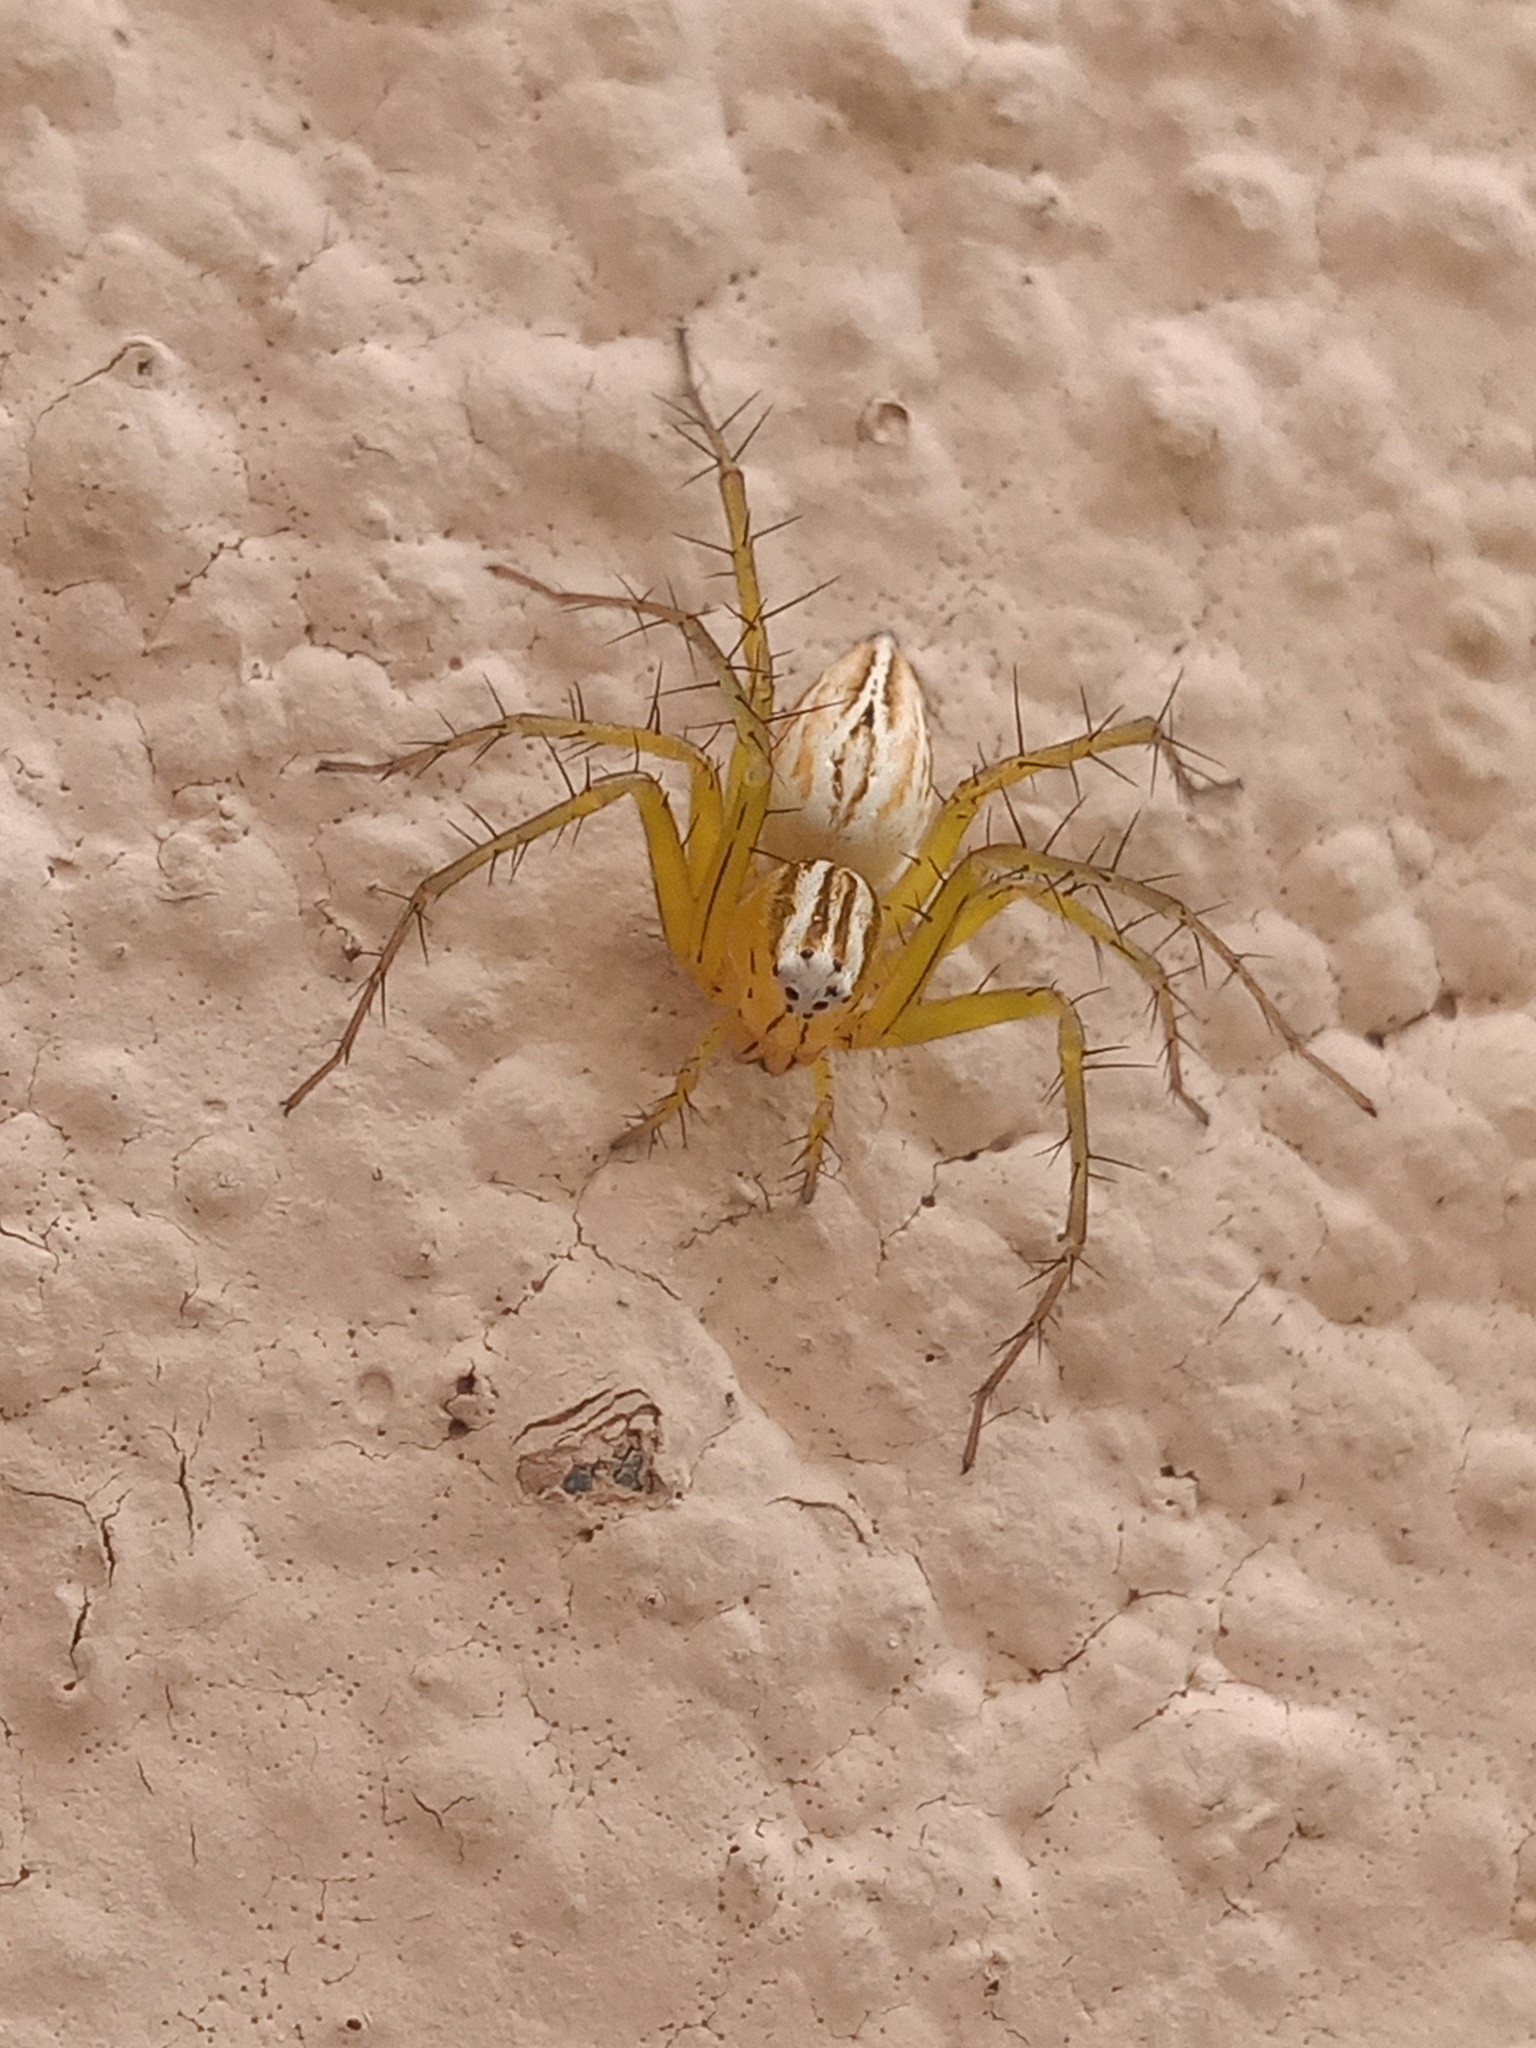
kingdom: Animalia
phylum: Arthropoda
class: Arachnida
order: Araneae
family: Oxyopidae
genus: Oxyopes
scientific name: Oxyopes salticus
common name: Lynx spiders
